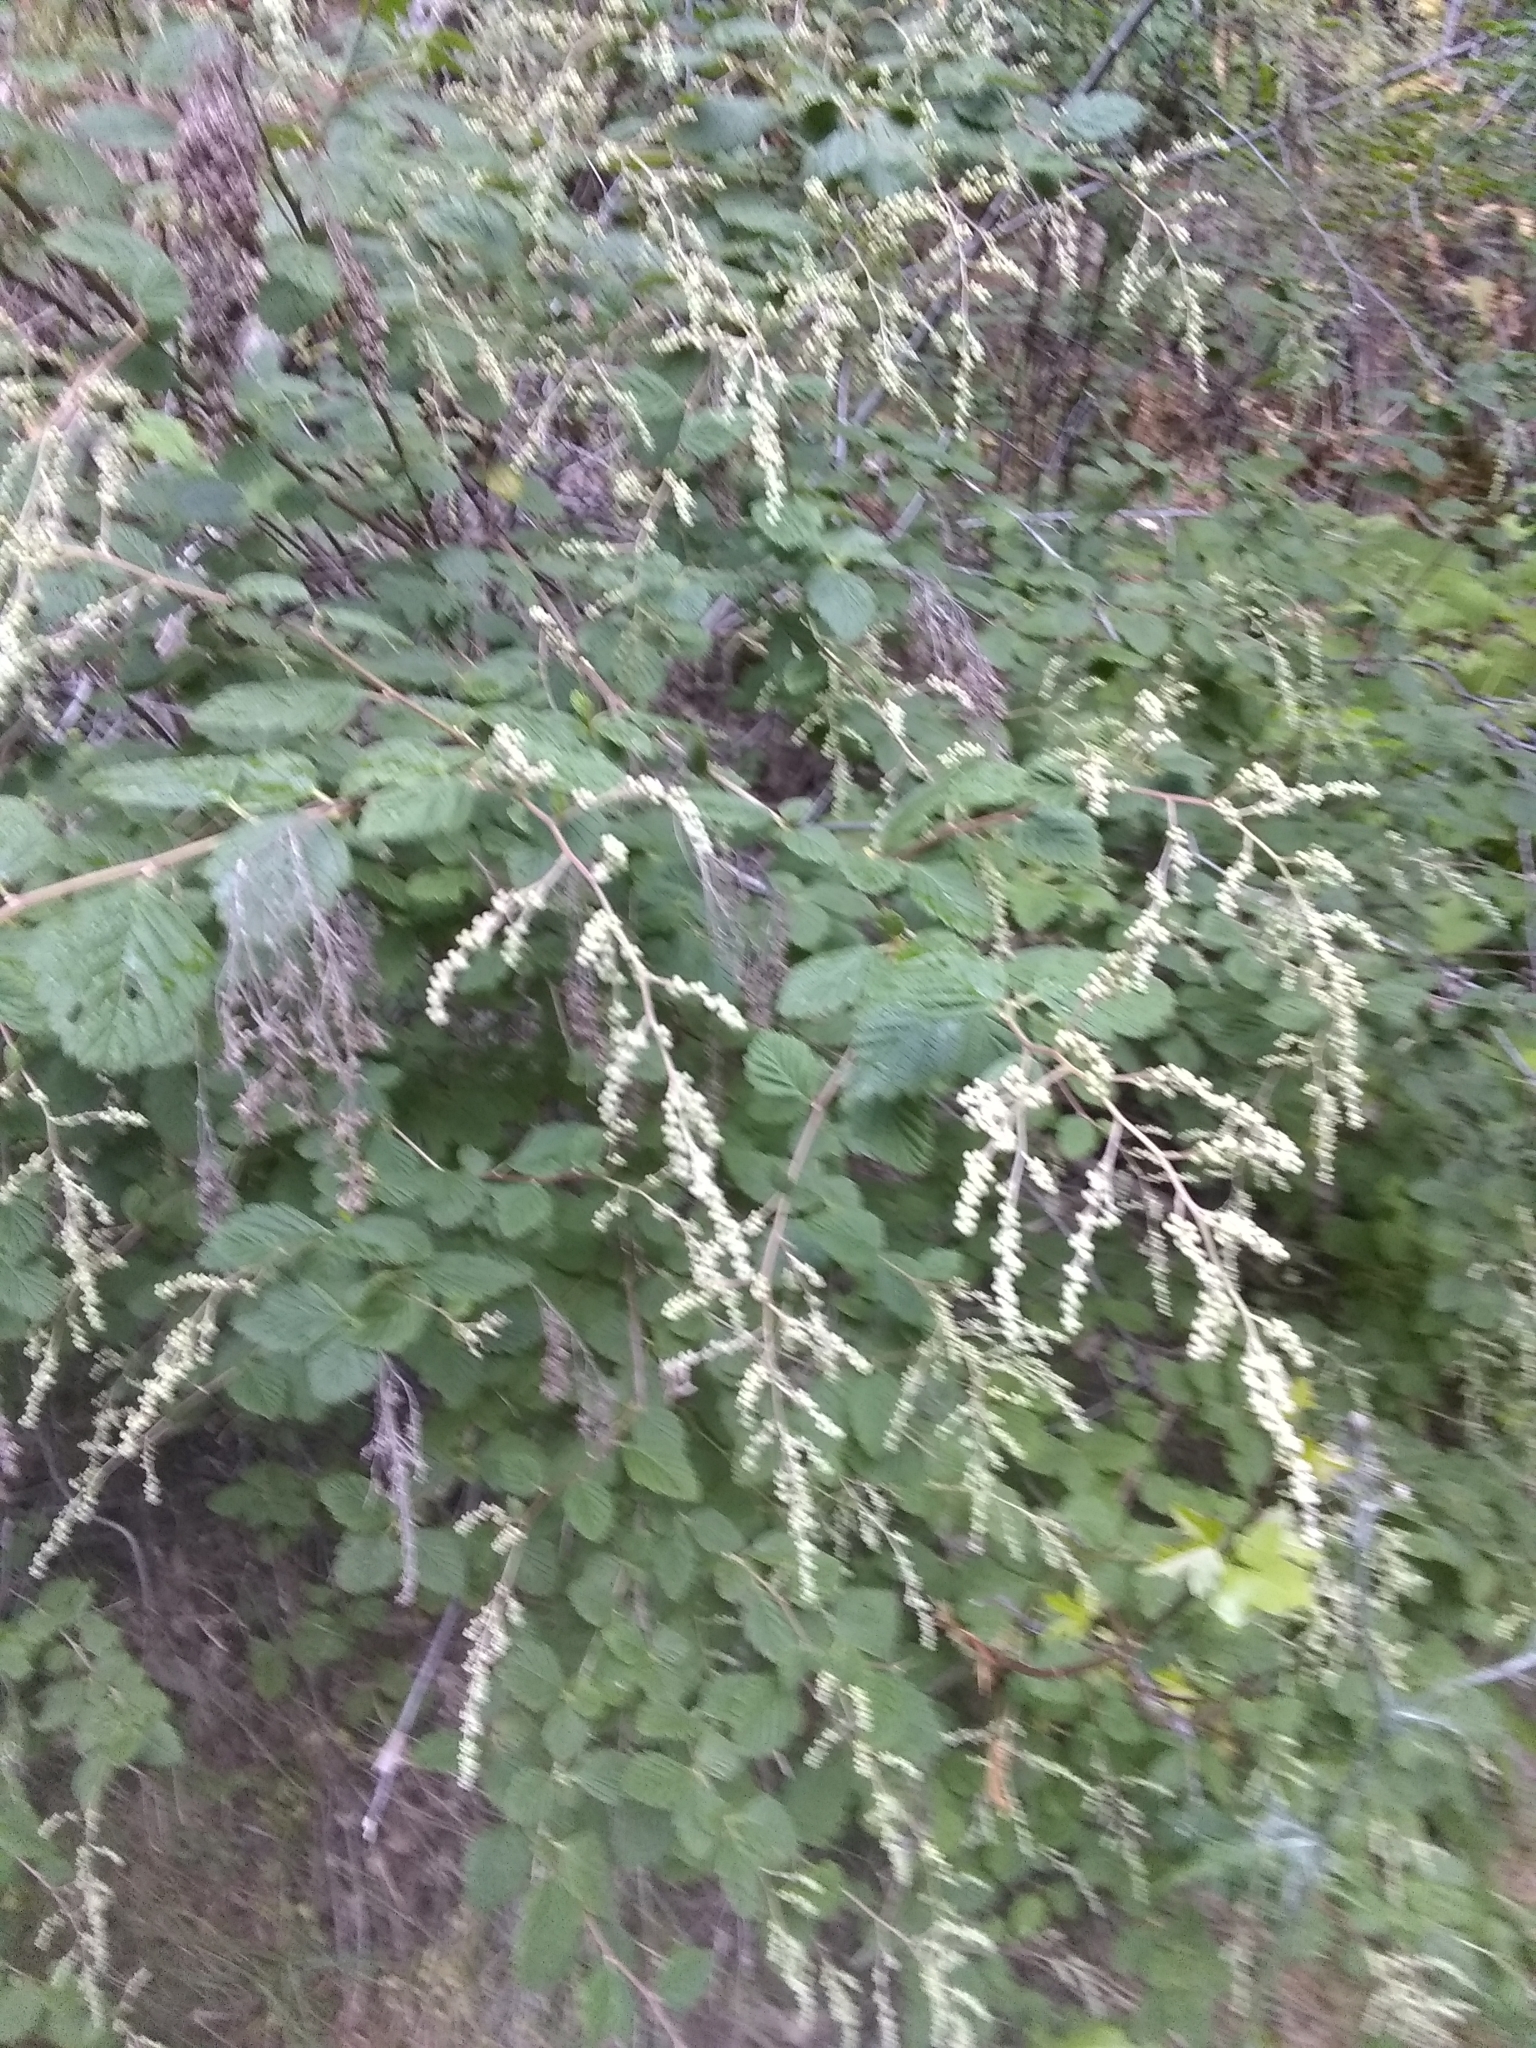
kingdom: Plantae
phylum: Tracheophyta
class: Magnoliopsida
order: Rosales
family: Rosaceae
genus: Holodiscus
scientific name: Holodiscus discolor
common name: Oceanspray
